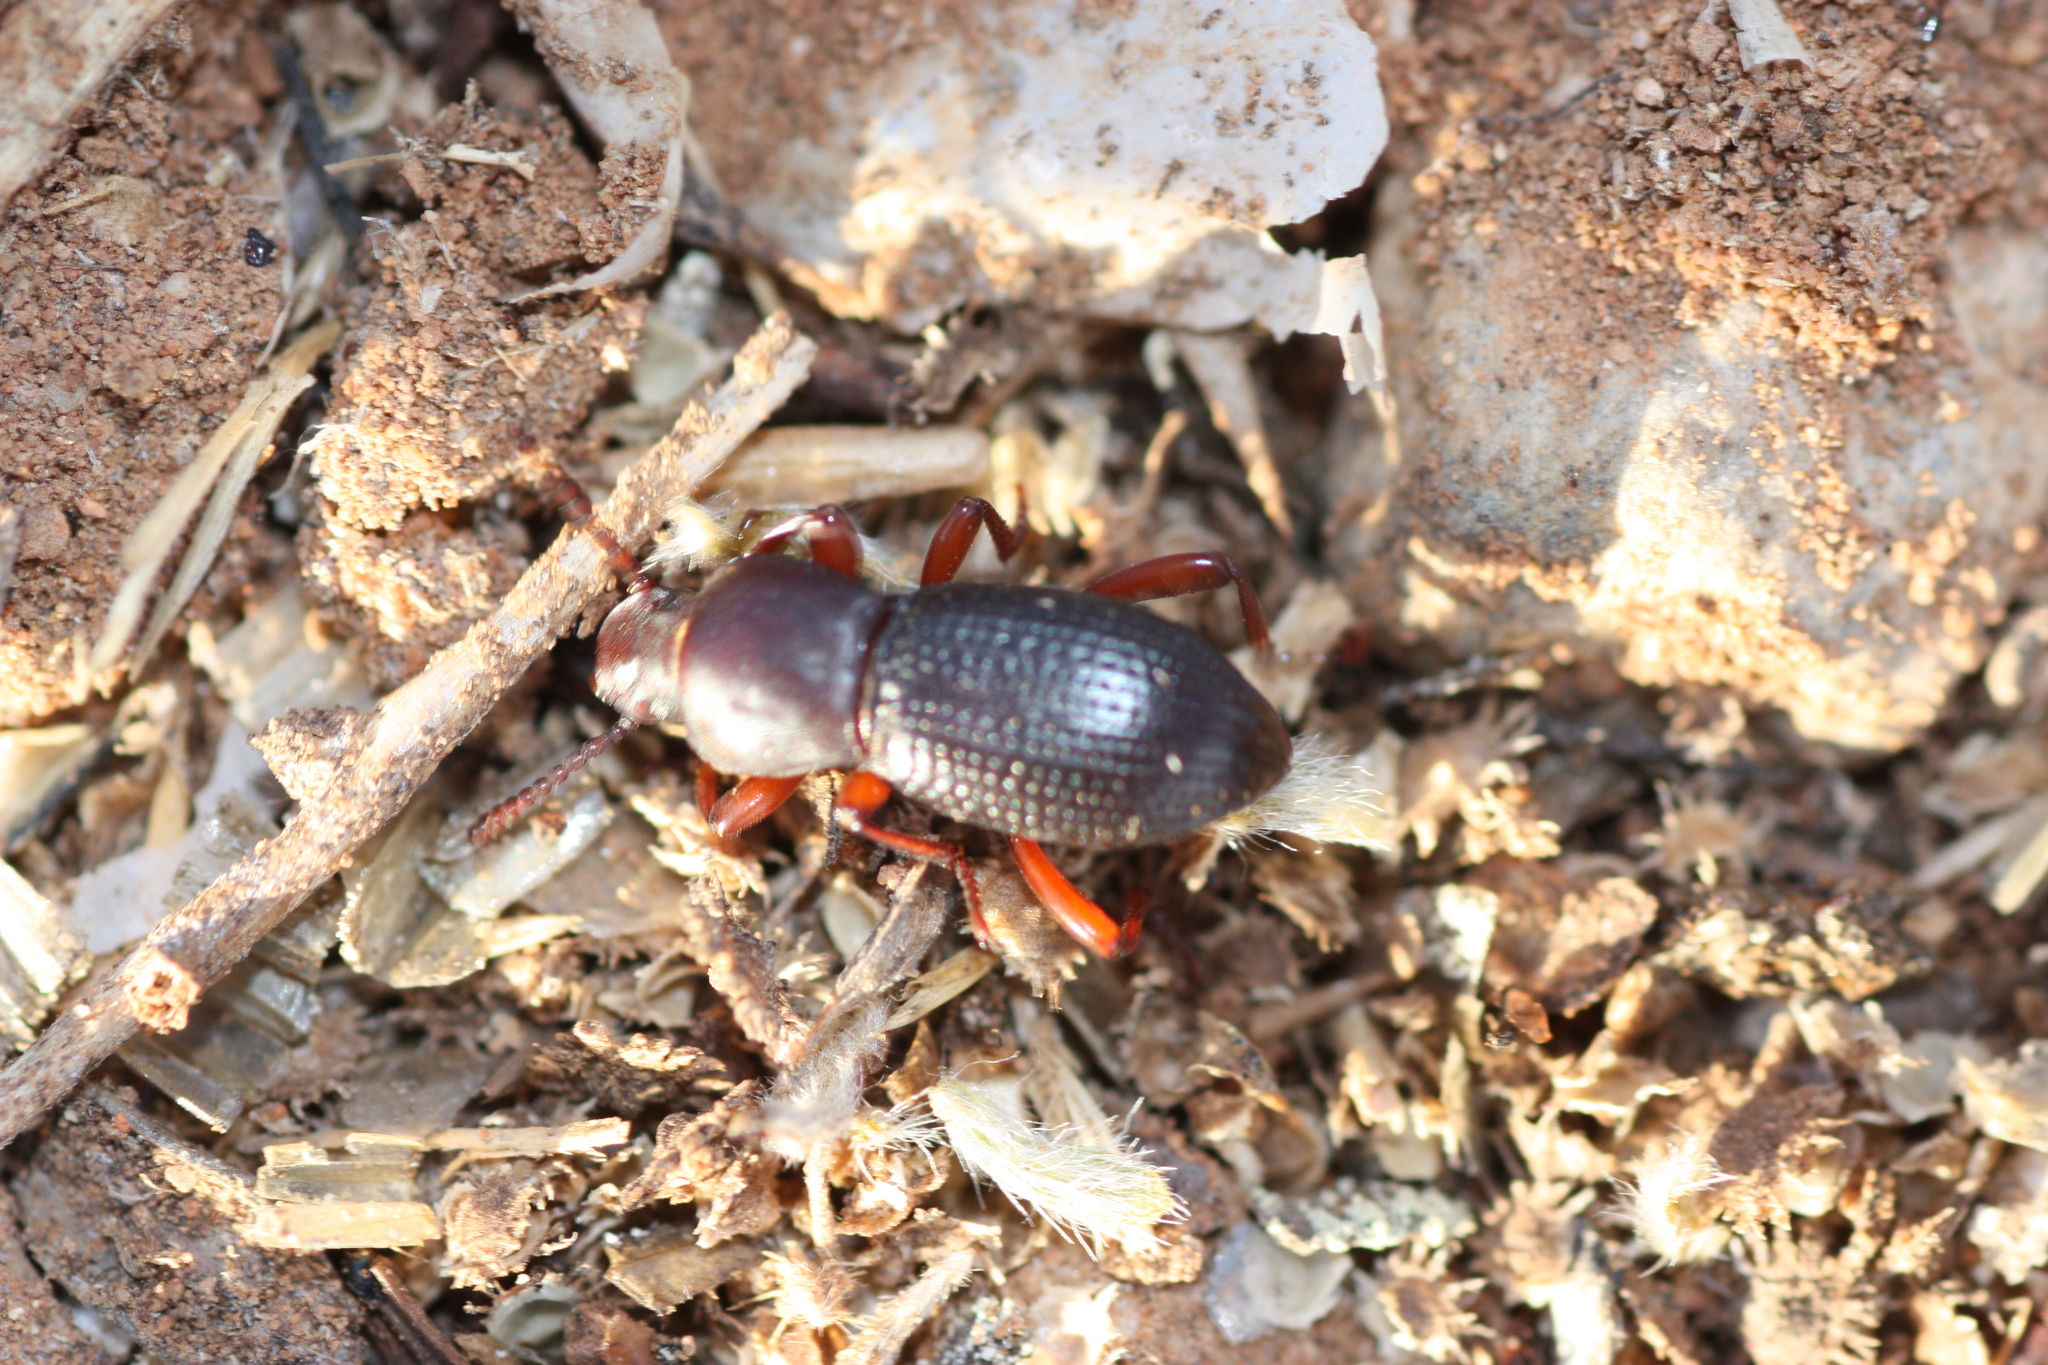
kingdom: Animalia
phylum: Arthropoda
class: Insecta
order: Coleoptera
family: Tenebrionidae
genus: Argoporis
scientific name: Argoporis rufipes
